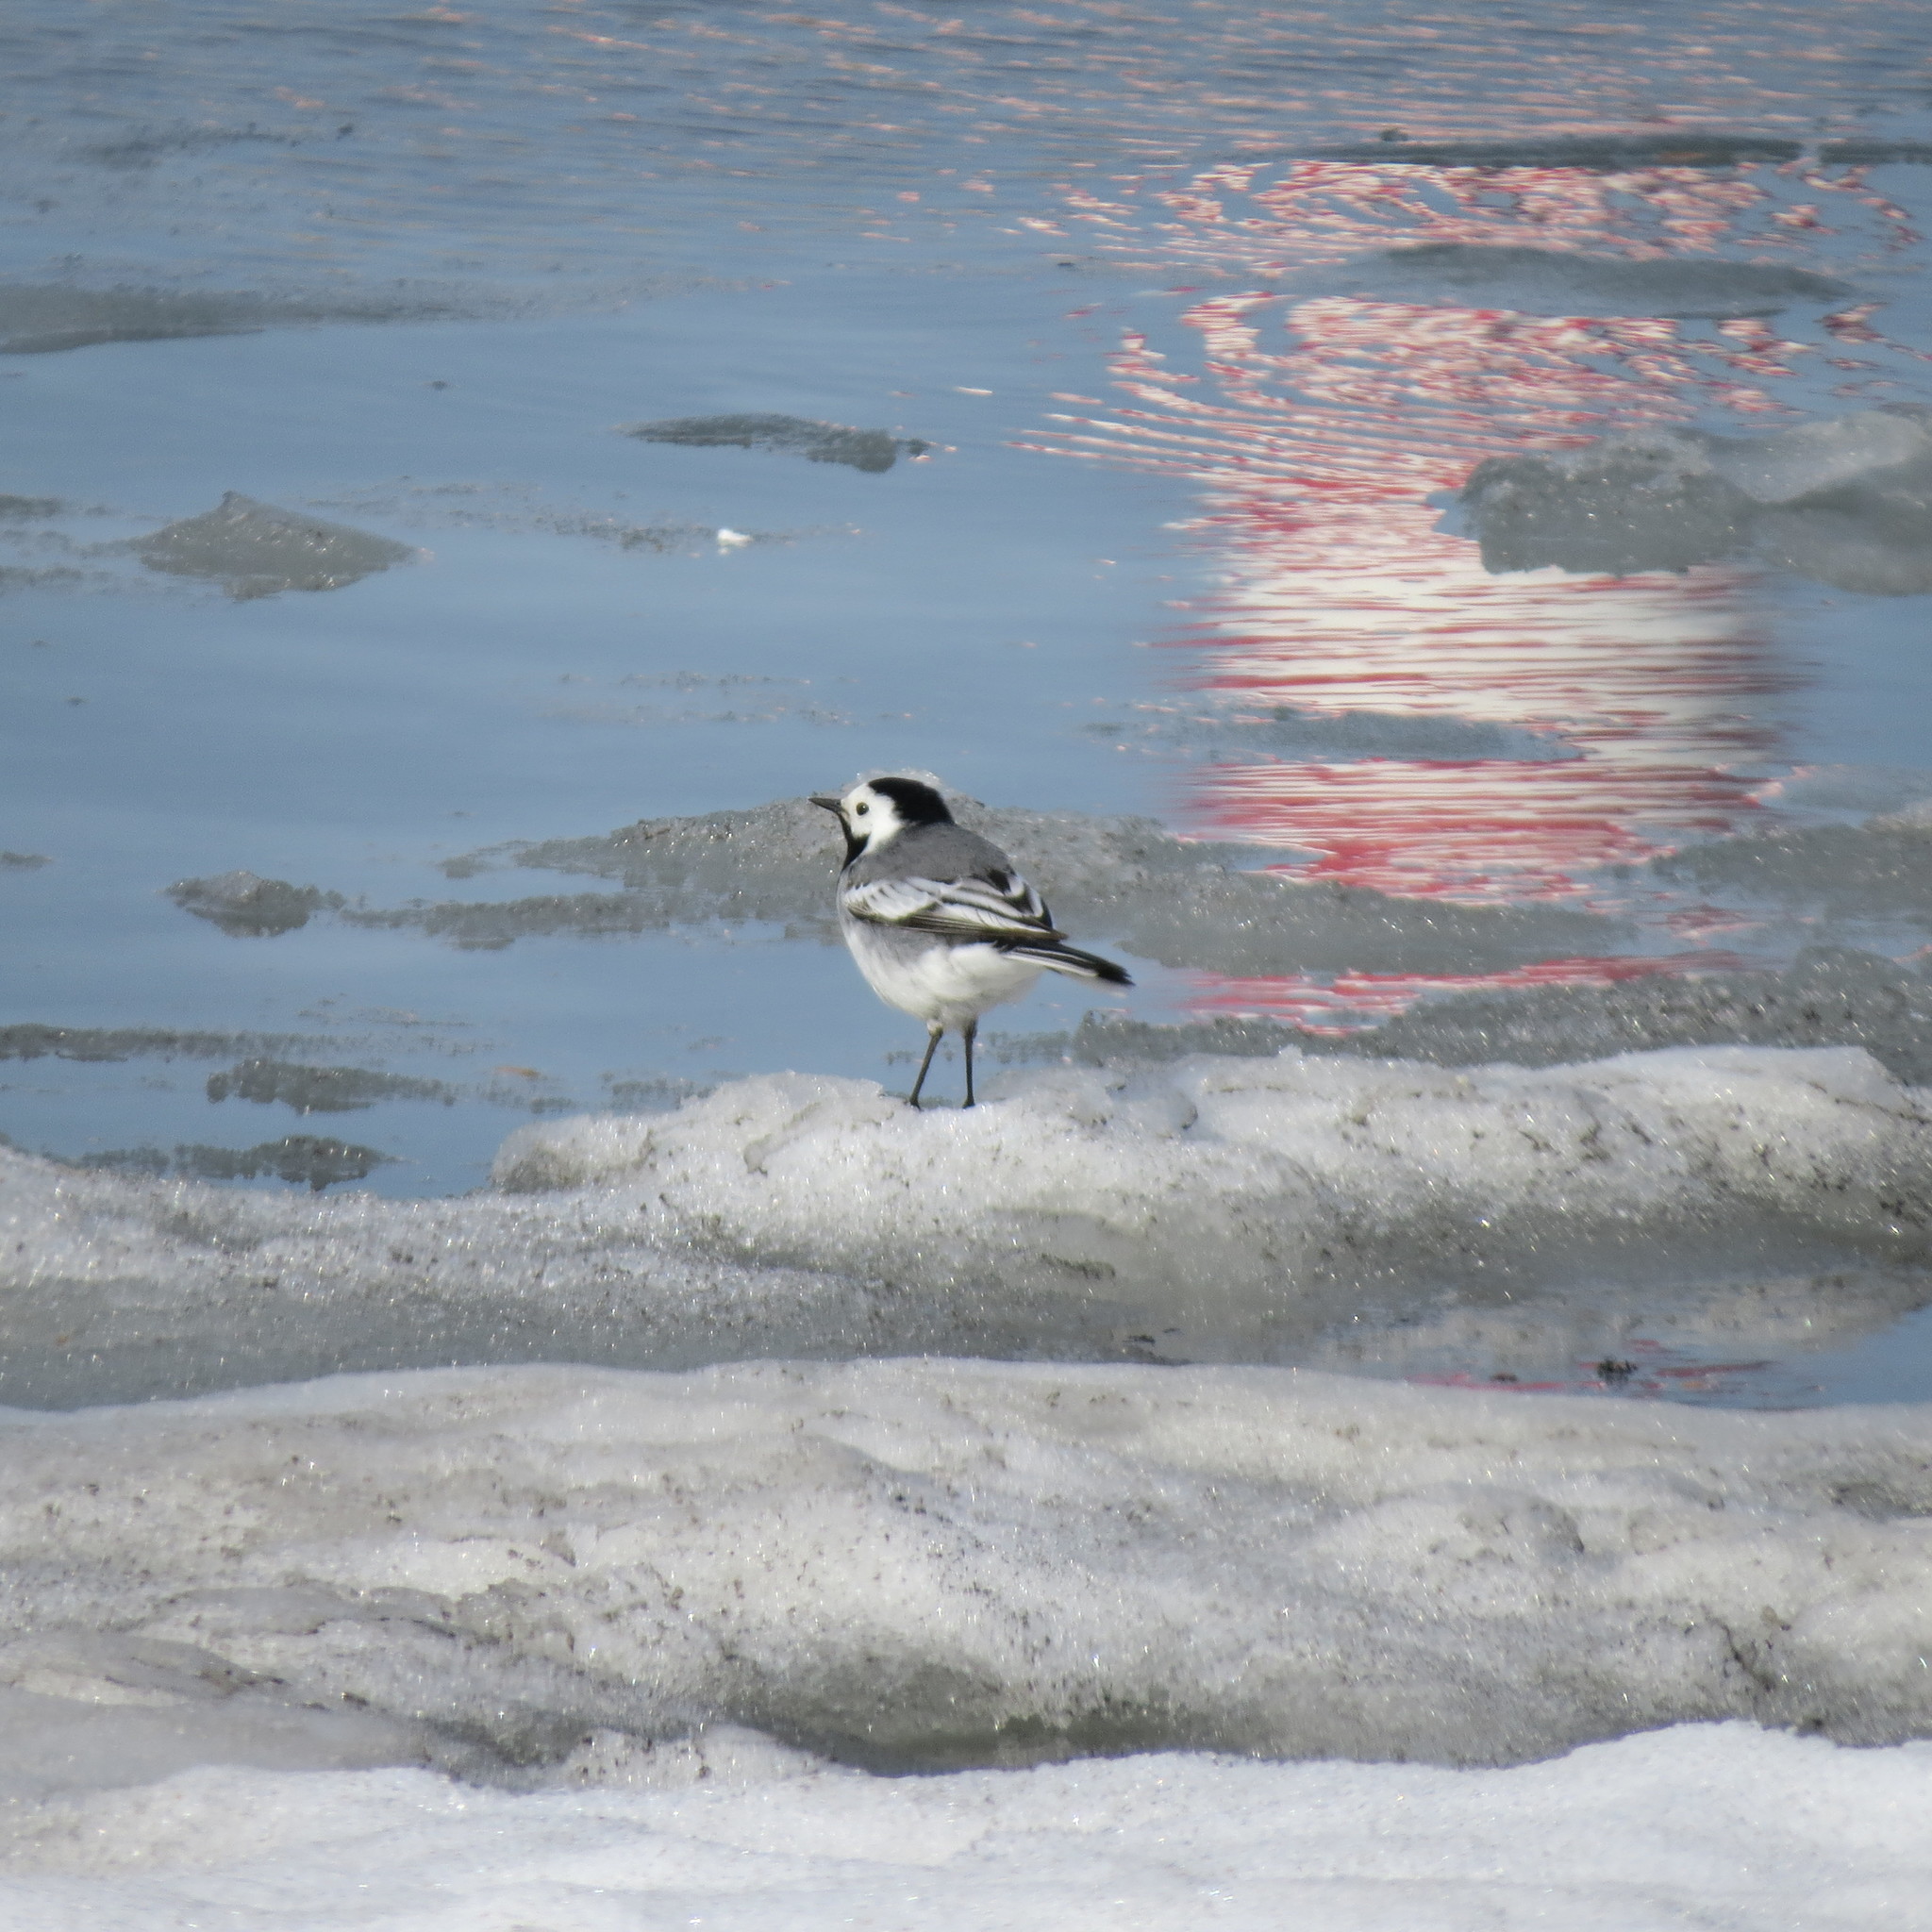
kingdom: Animalia
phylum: Chordata
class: Aves
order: Passeriformes
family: Motacillidae
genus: Motacilla
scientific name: Motacilla alba
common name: White wagtail
